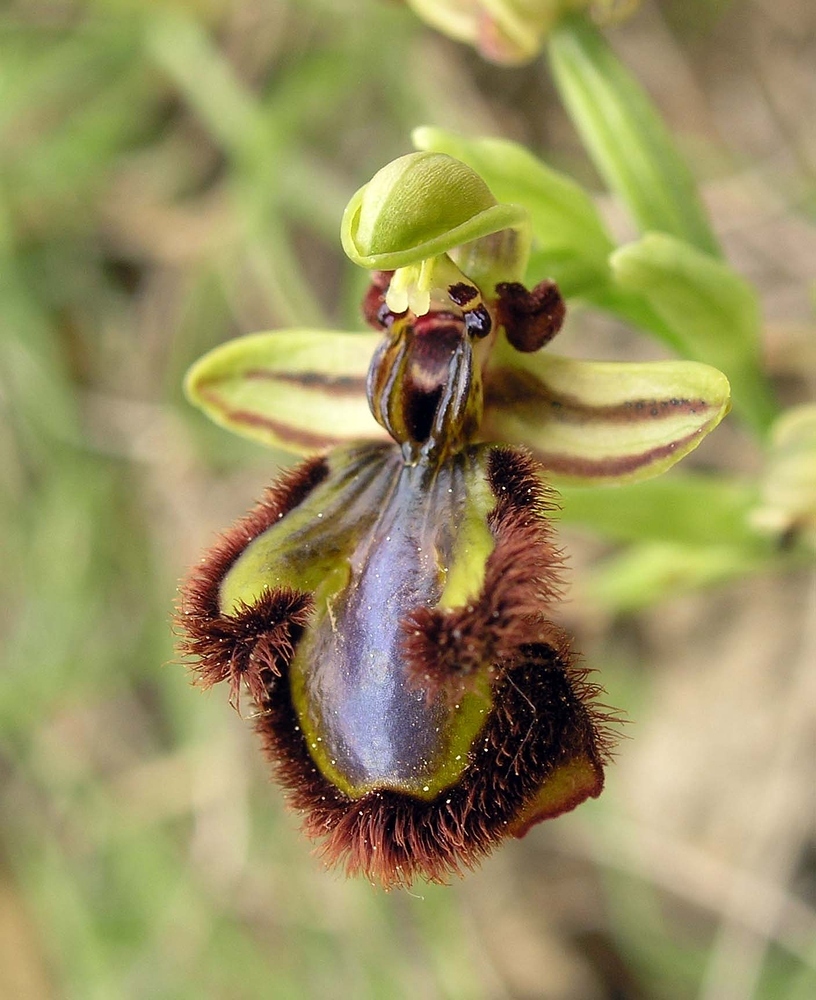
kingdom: Plantae
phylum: Tracheophyta
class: Liliopsida
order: Asparagales
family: Orchidaceae
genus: Ophrys
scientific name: Ophrys speculum
